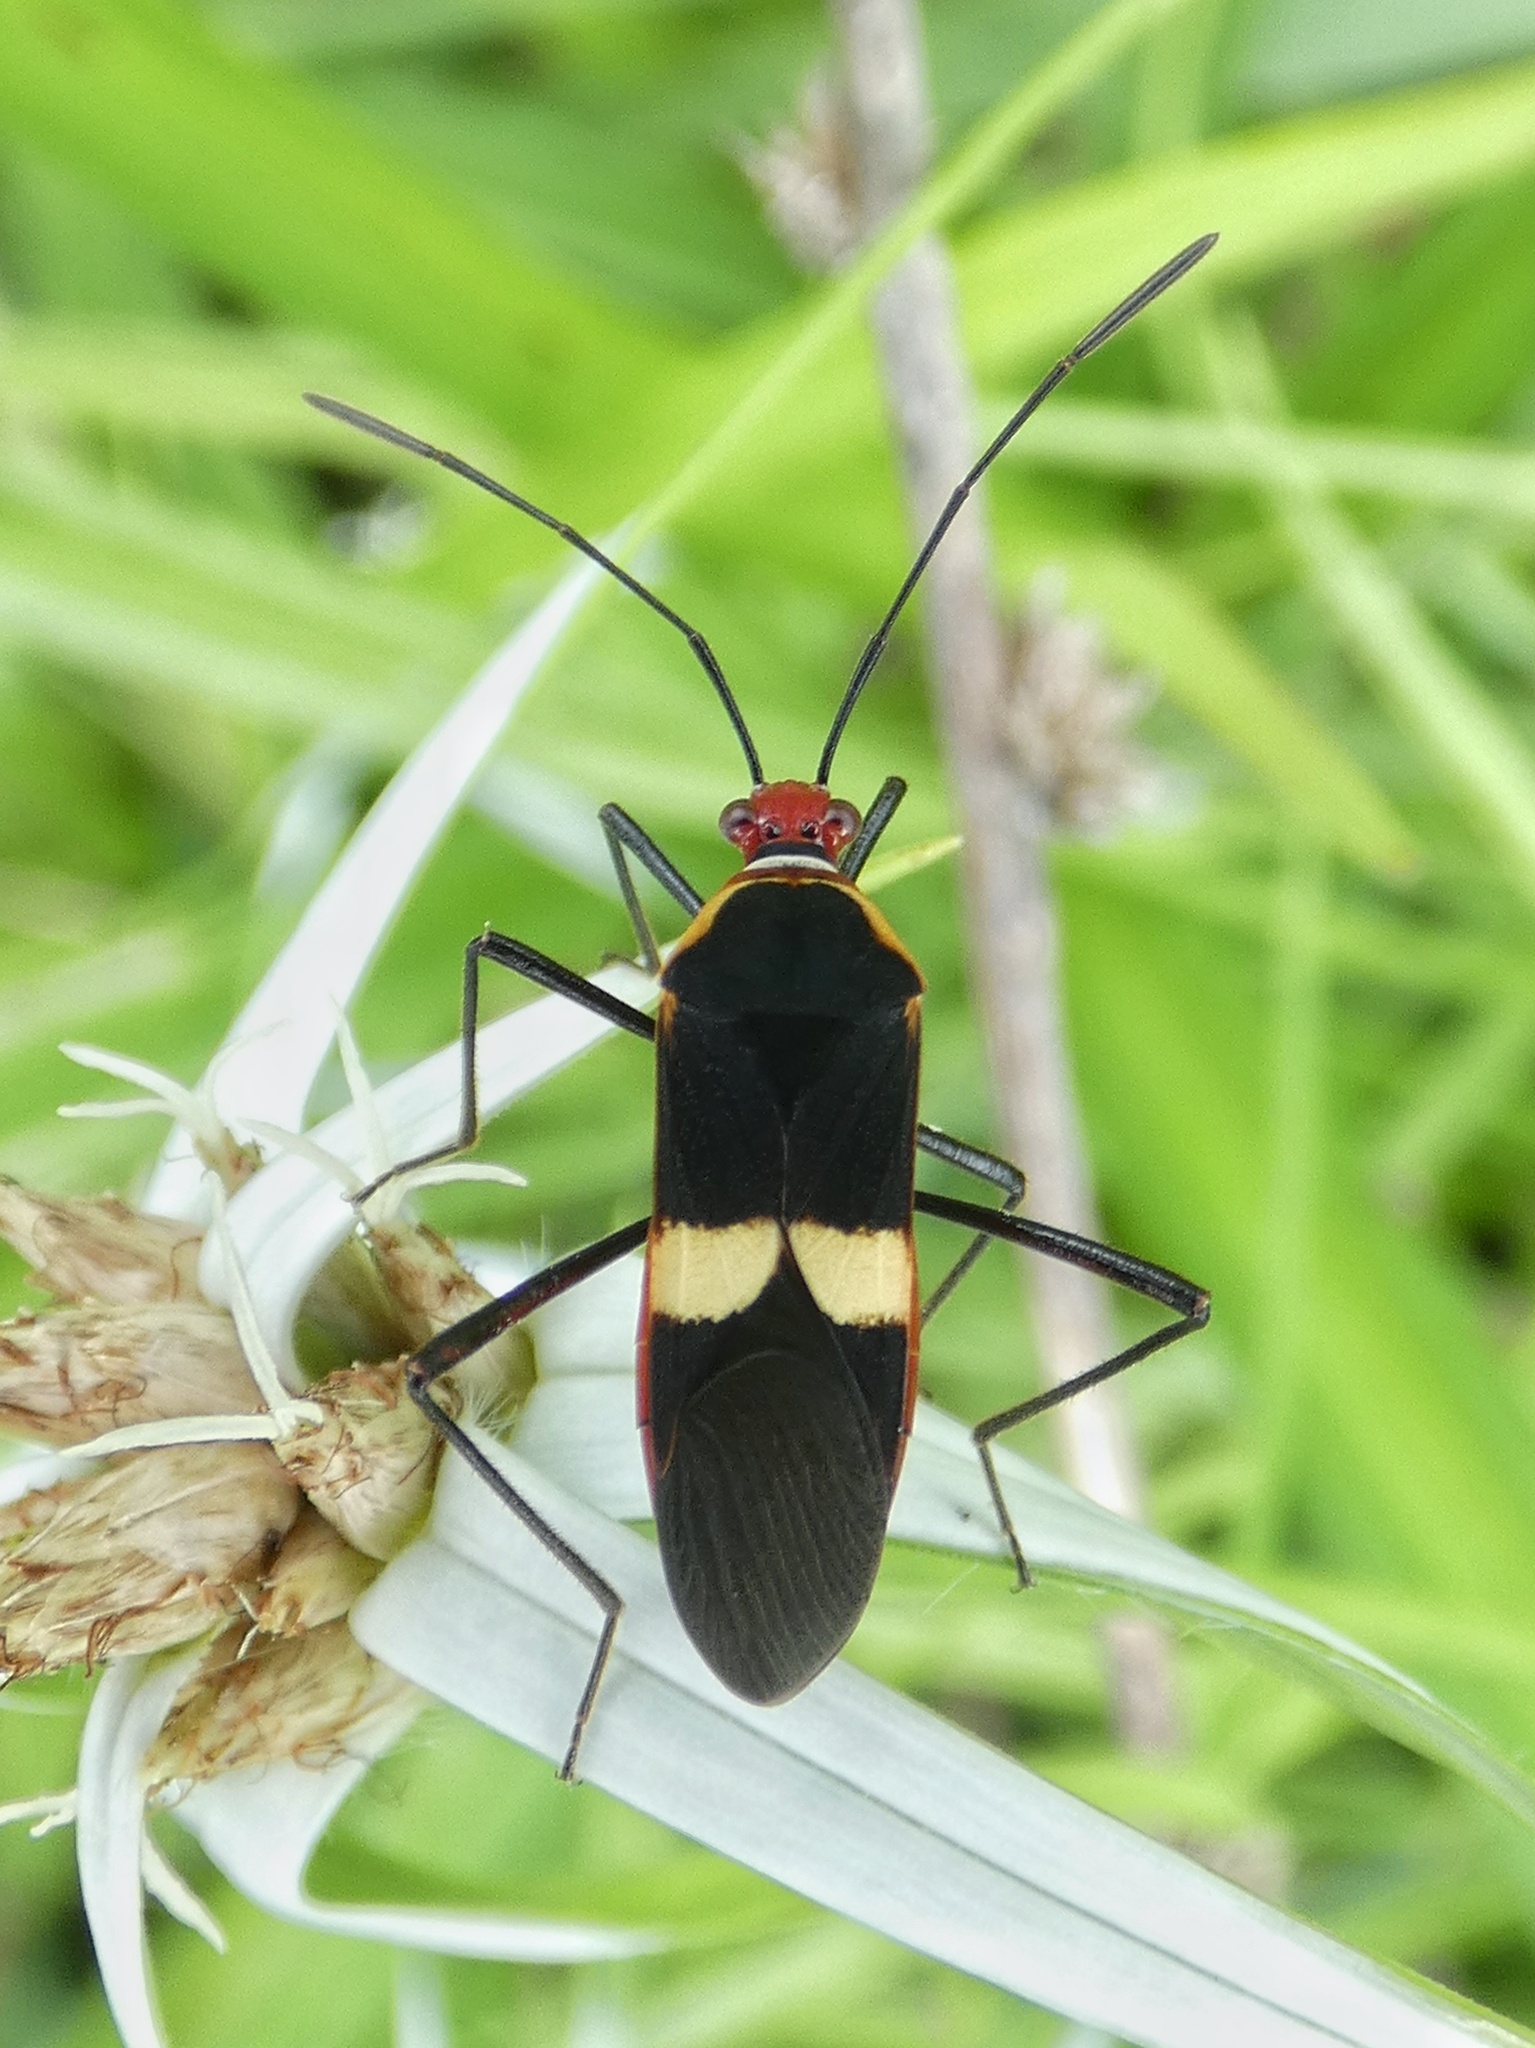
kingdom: Animalia
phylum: Arthropoda
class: Insecta
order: Hemiptera
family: Coreidae
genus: Hypselonotus
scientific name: Hypselonotus interruptus
